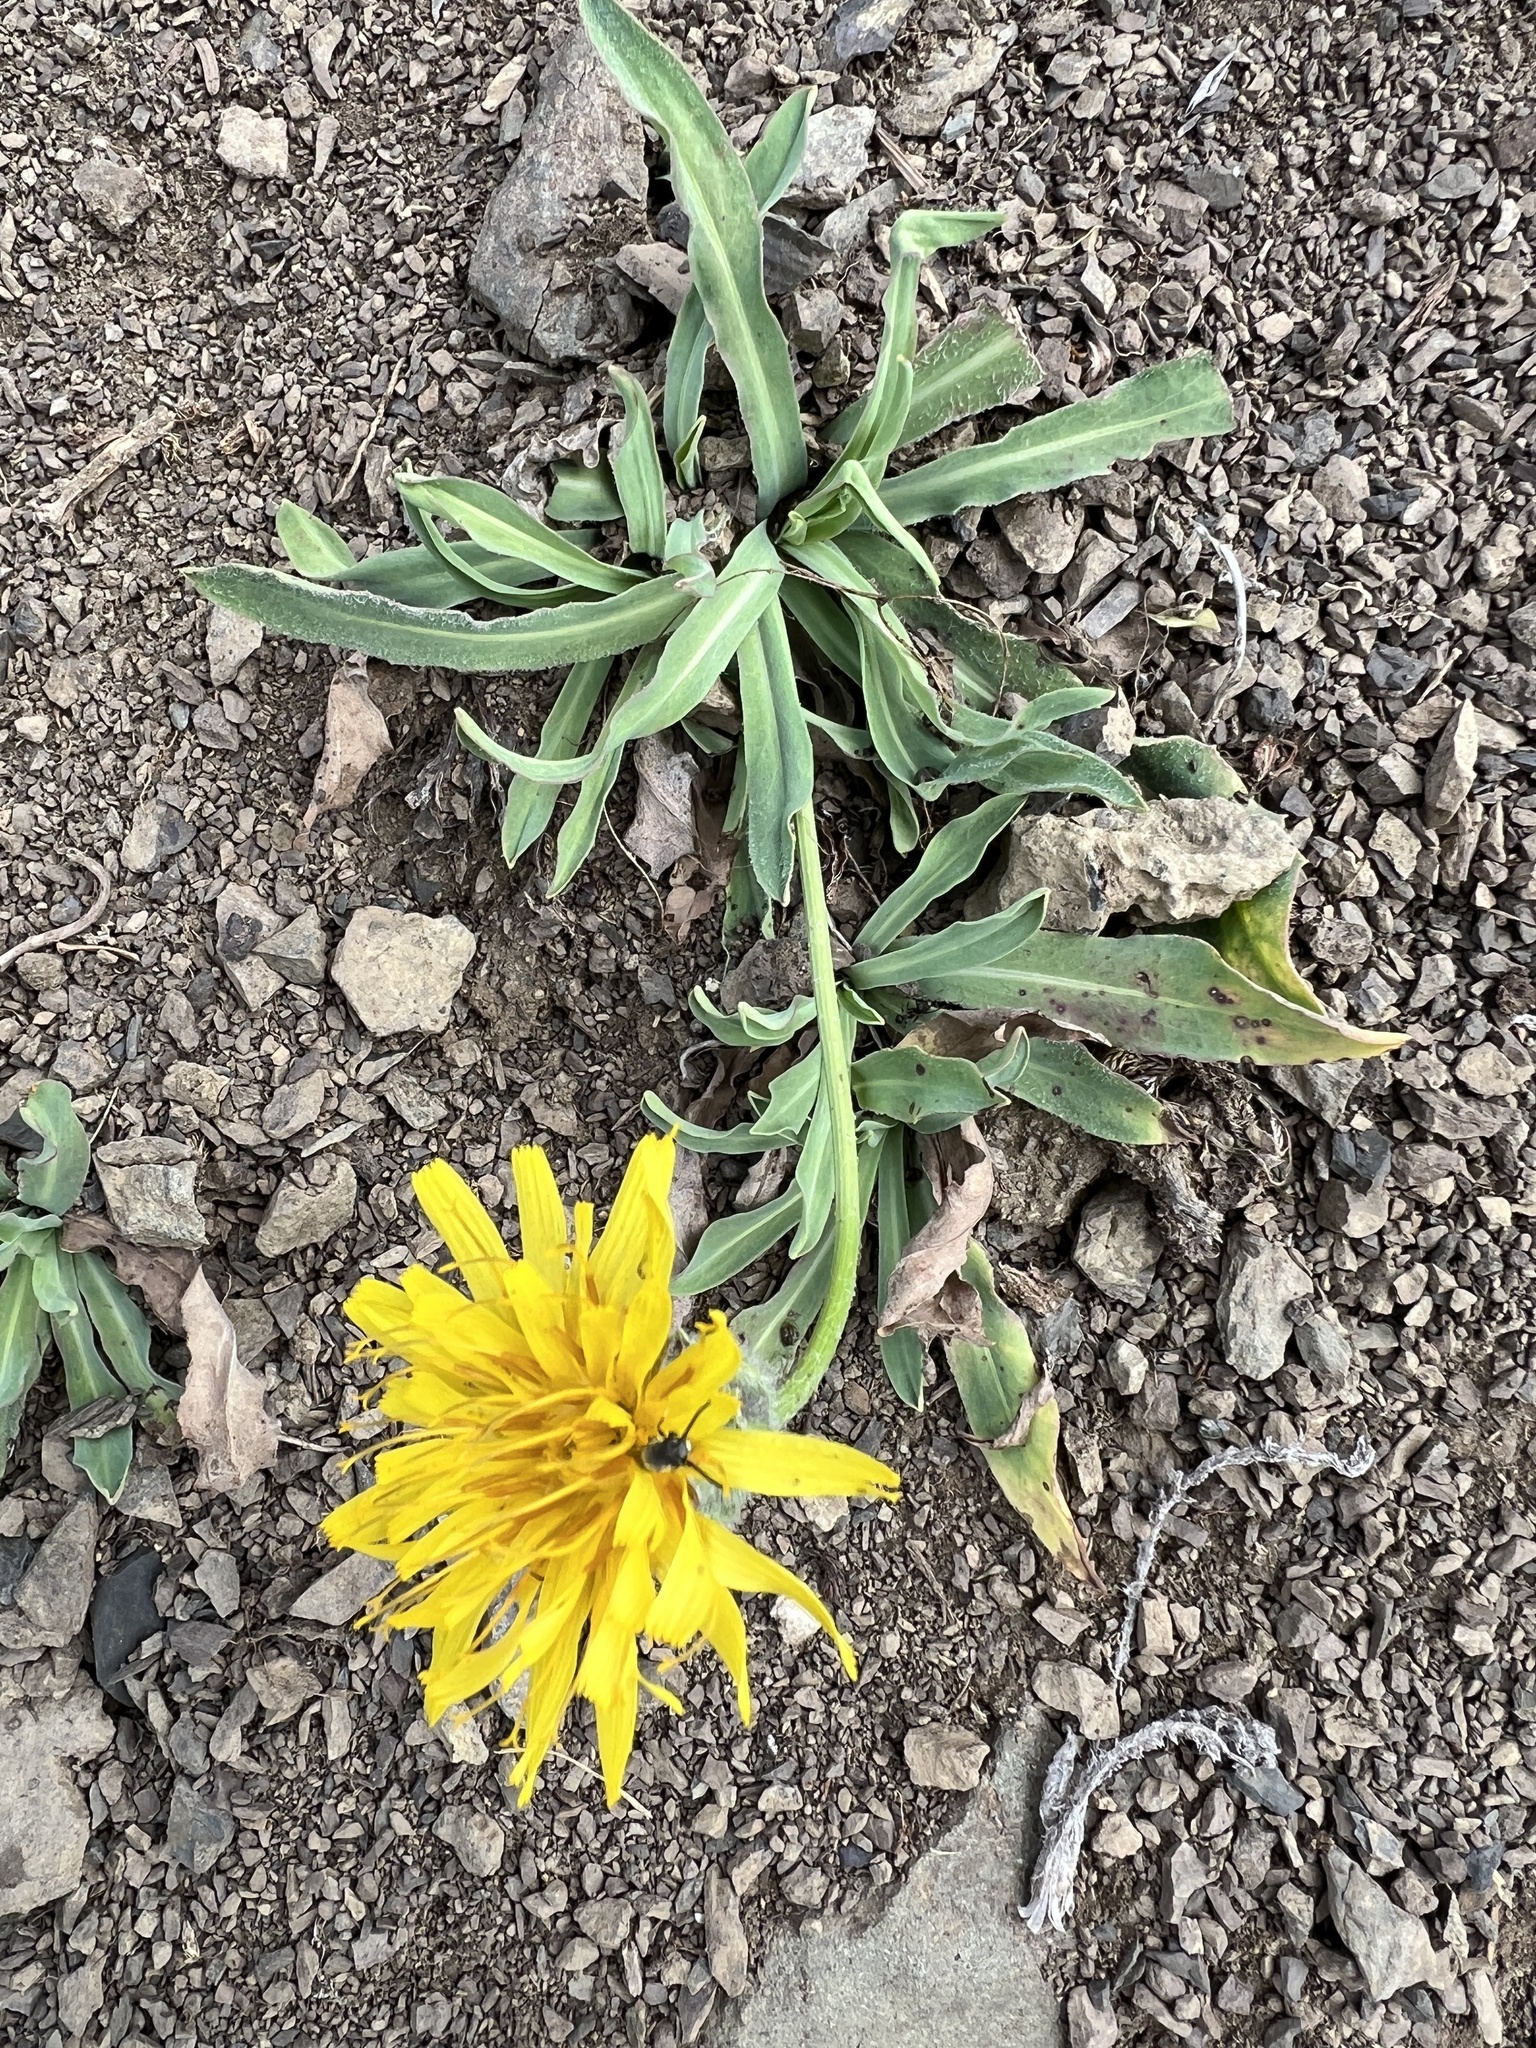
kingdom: Plantae
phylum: Tracheophyta
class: Magnoliopsida
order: Asterales
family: Asteraceae
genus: Agoseris
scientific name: Agoseris glauca
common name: Prairie agoseris
